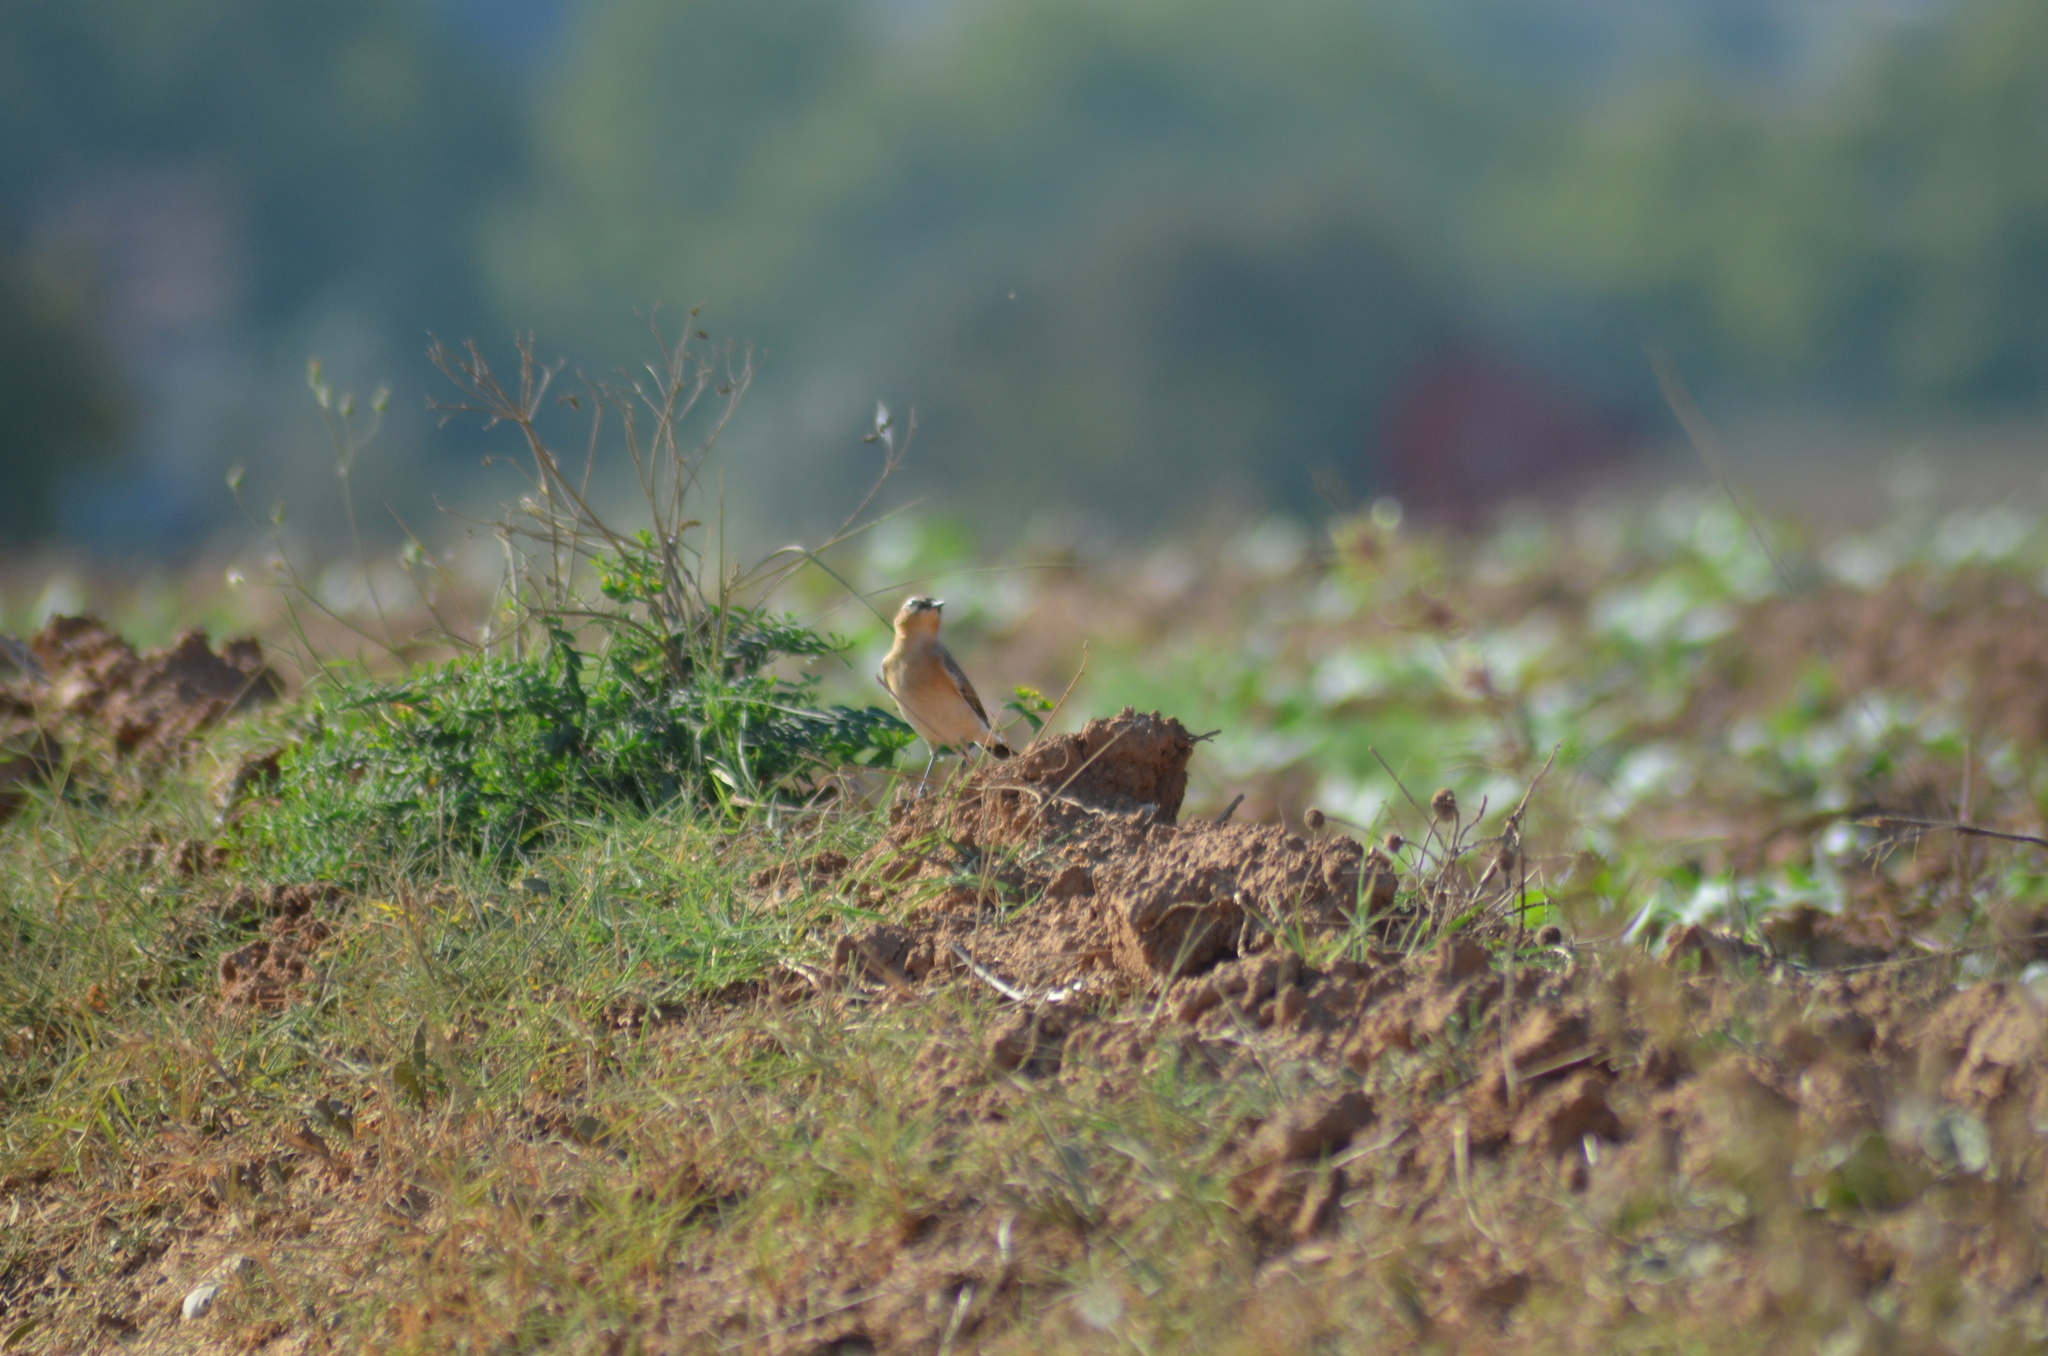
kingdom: Animalia
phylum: Chordata
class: Aves
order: Passeriformes
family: Muscicapidae
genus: Oenanthe
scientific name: Oenanthe oenanthe
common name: Northern wheatear
